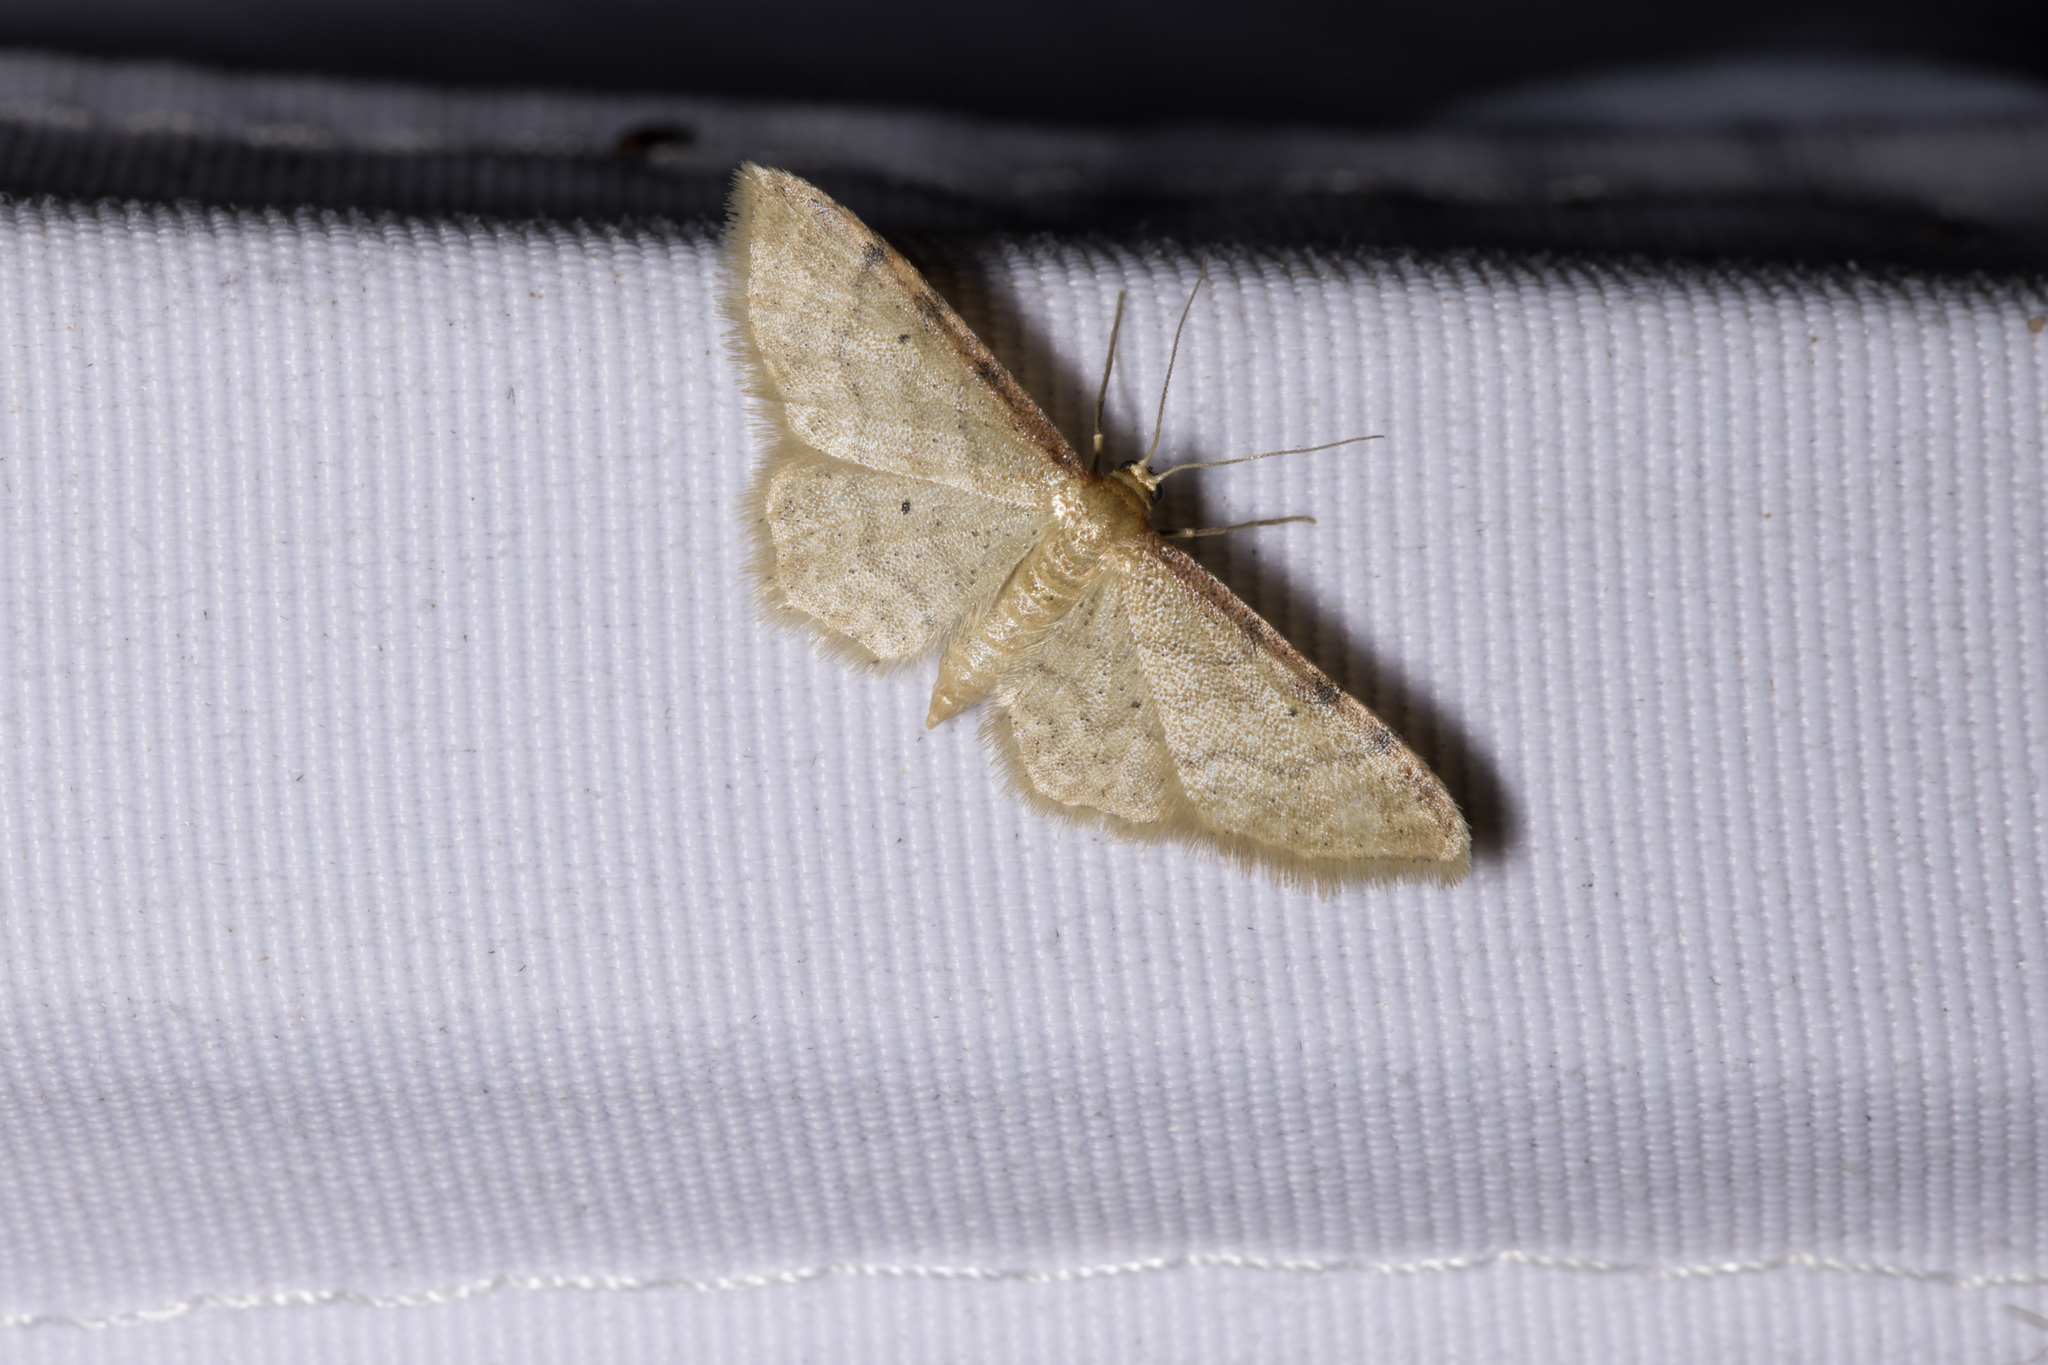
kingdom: Animalia
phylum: Arthropoda
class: Insecta
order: Lepidoptera
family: Geometridae
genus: Idaea
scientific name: Idaea humiliata
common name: Isle of wight wave
